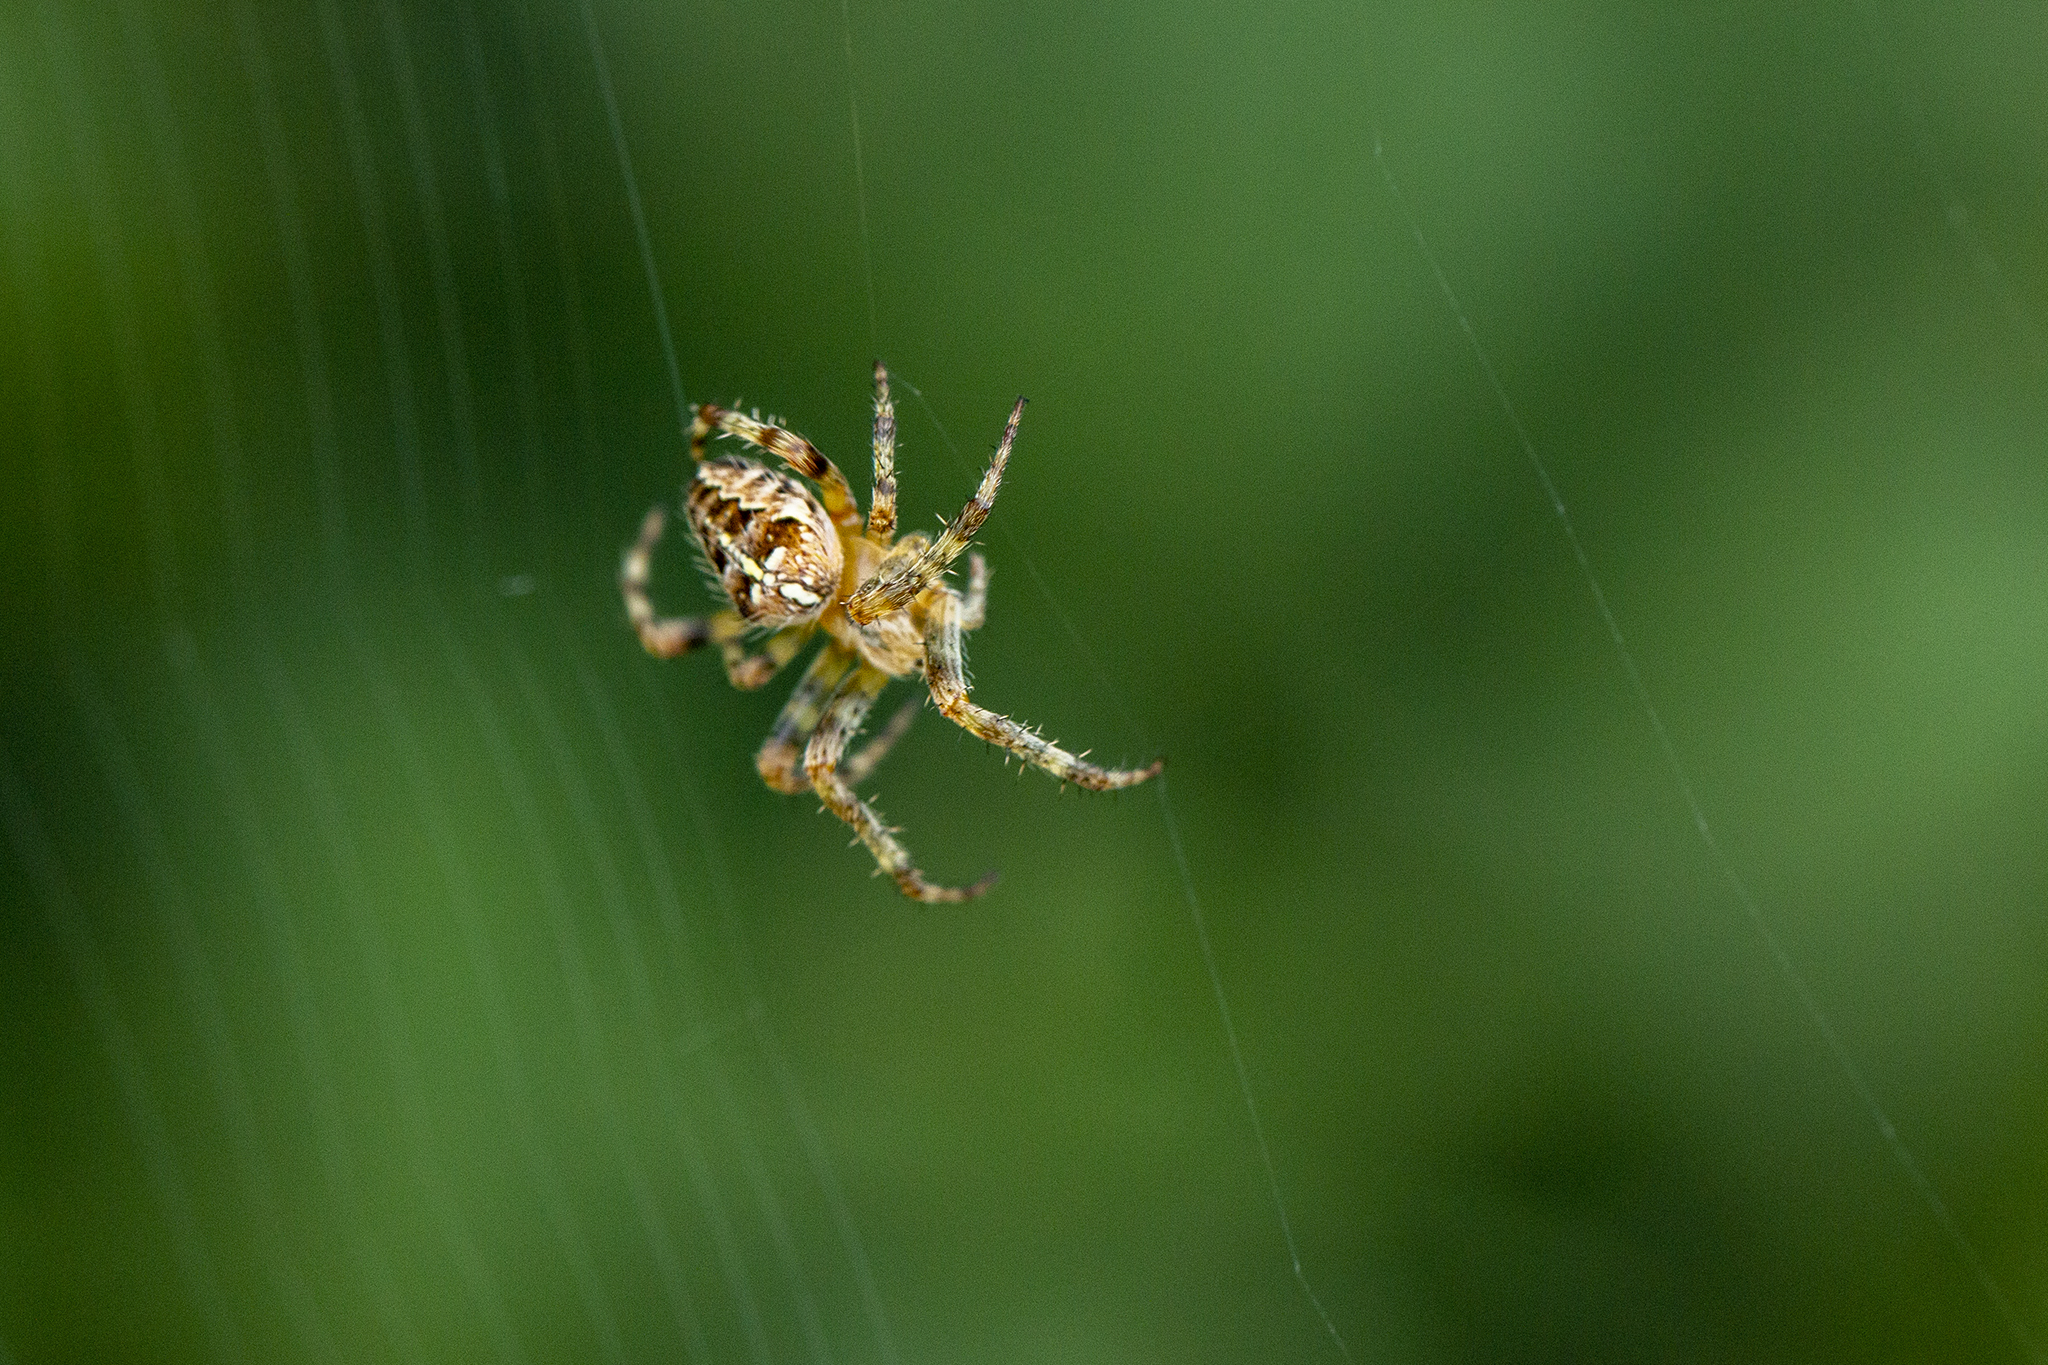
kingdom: Animalia
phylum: Arthropoda
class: Arachnida
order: Araneae
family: Araneidae
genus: Araneus
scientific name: Araneus diadematus
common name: Cross orbweaver
